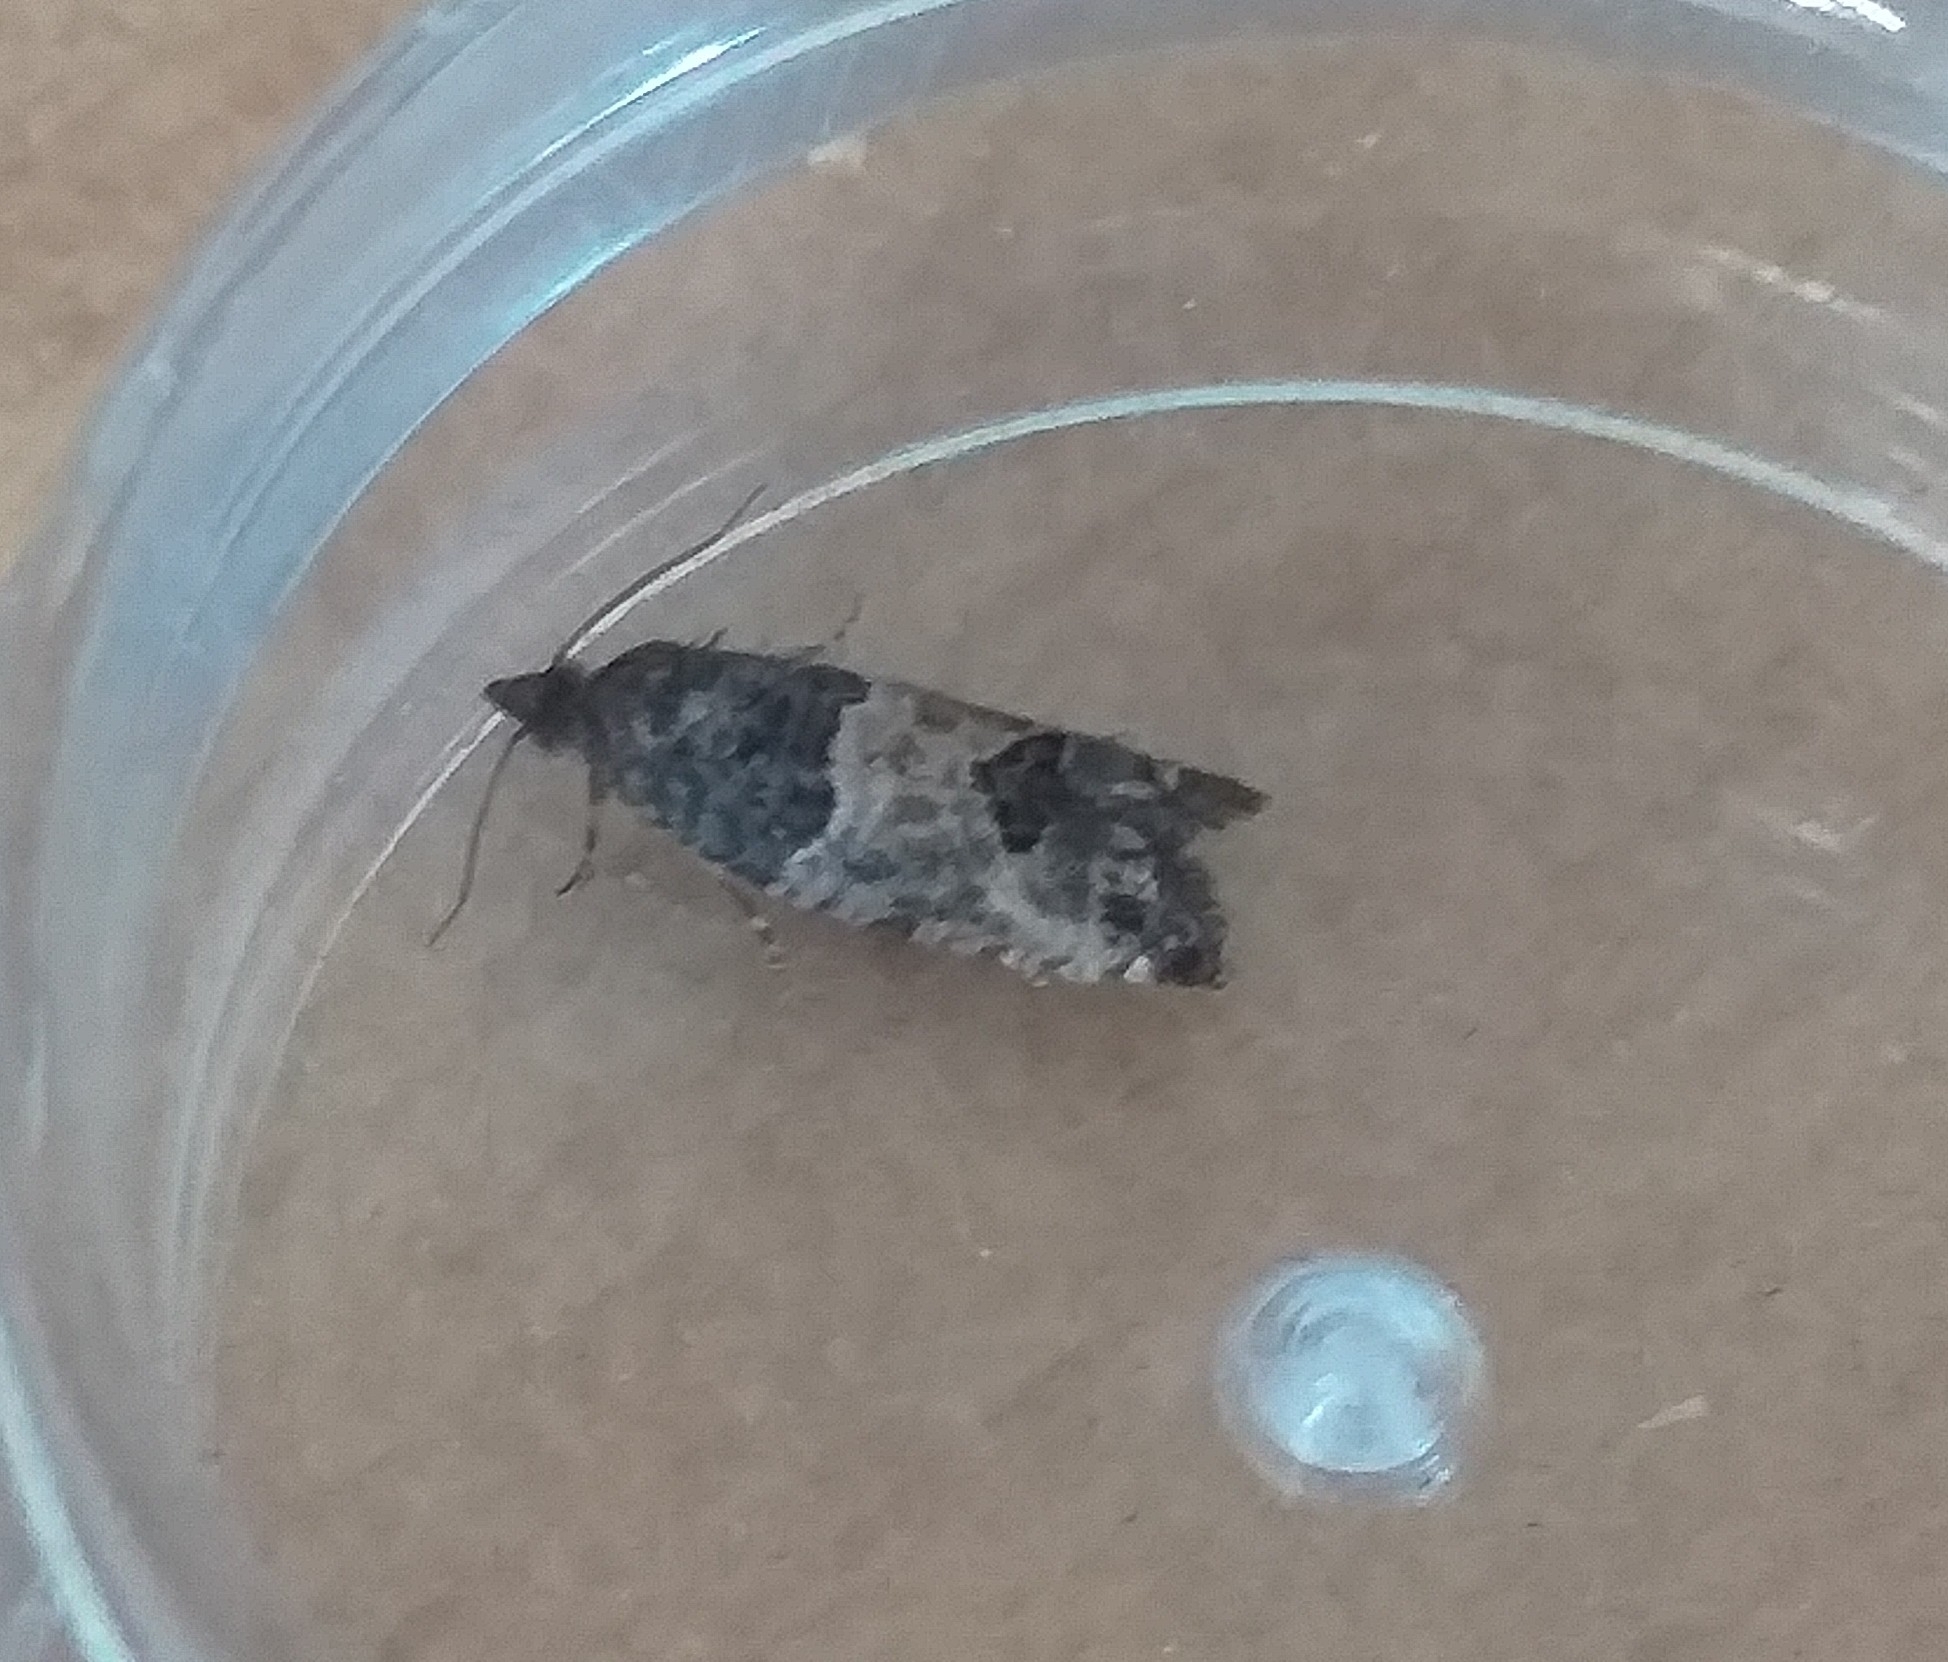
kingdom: Animalia
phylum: Arthropoda
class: Insecta
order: Lepidoptera
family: Tortricidae
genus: Spilonota
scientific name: Spilonota ocellana
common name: Bud moth
